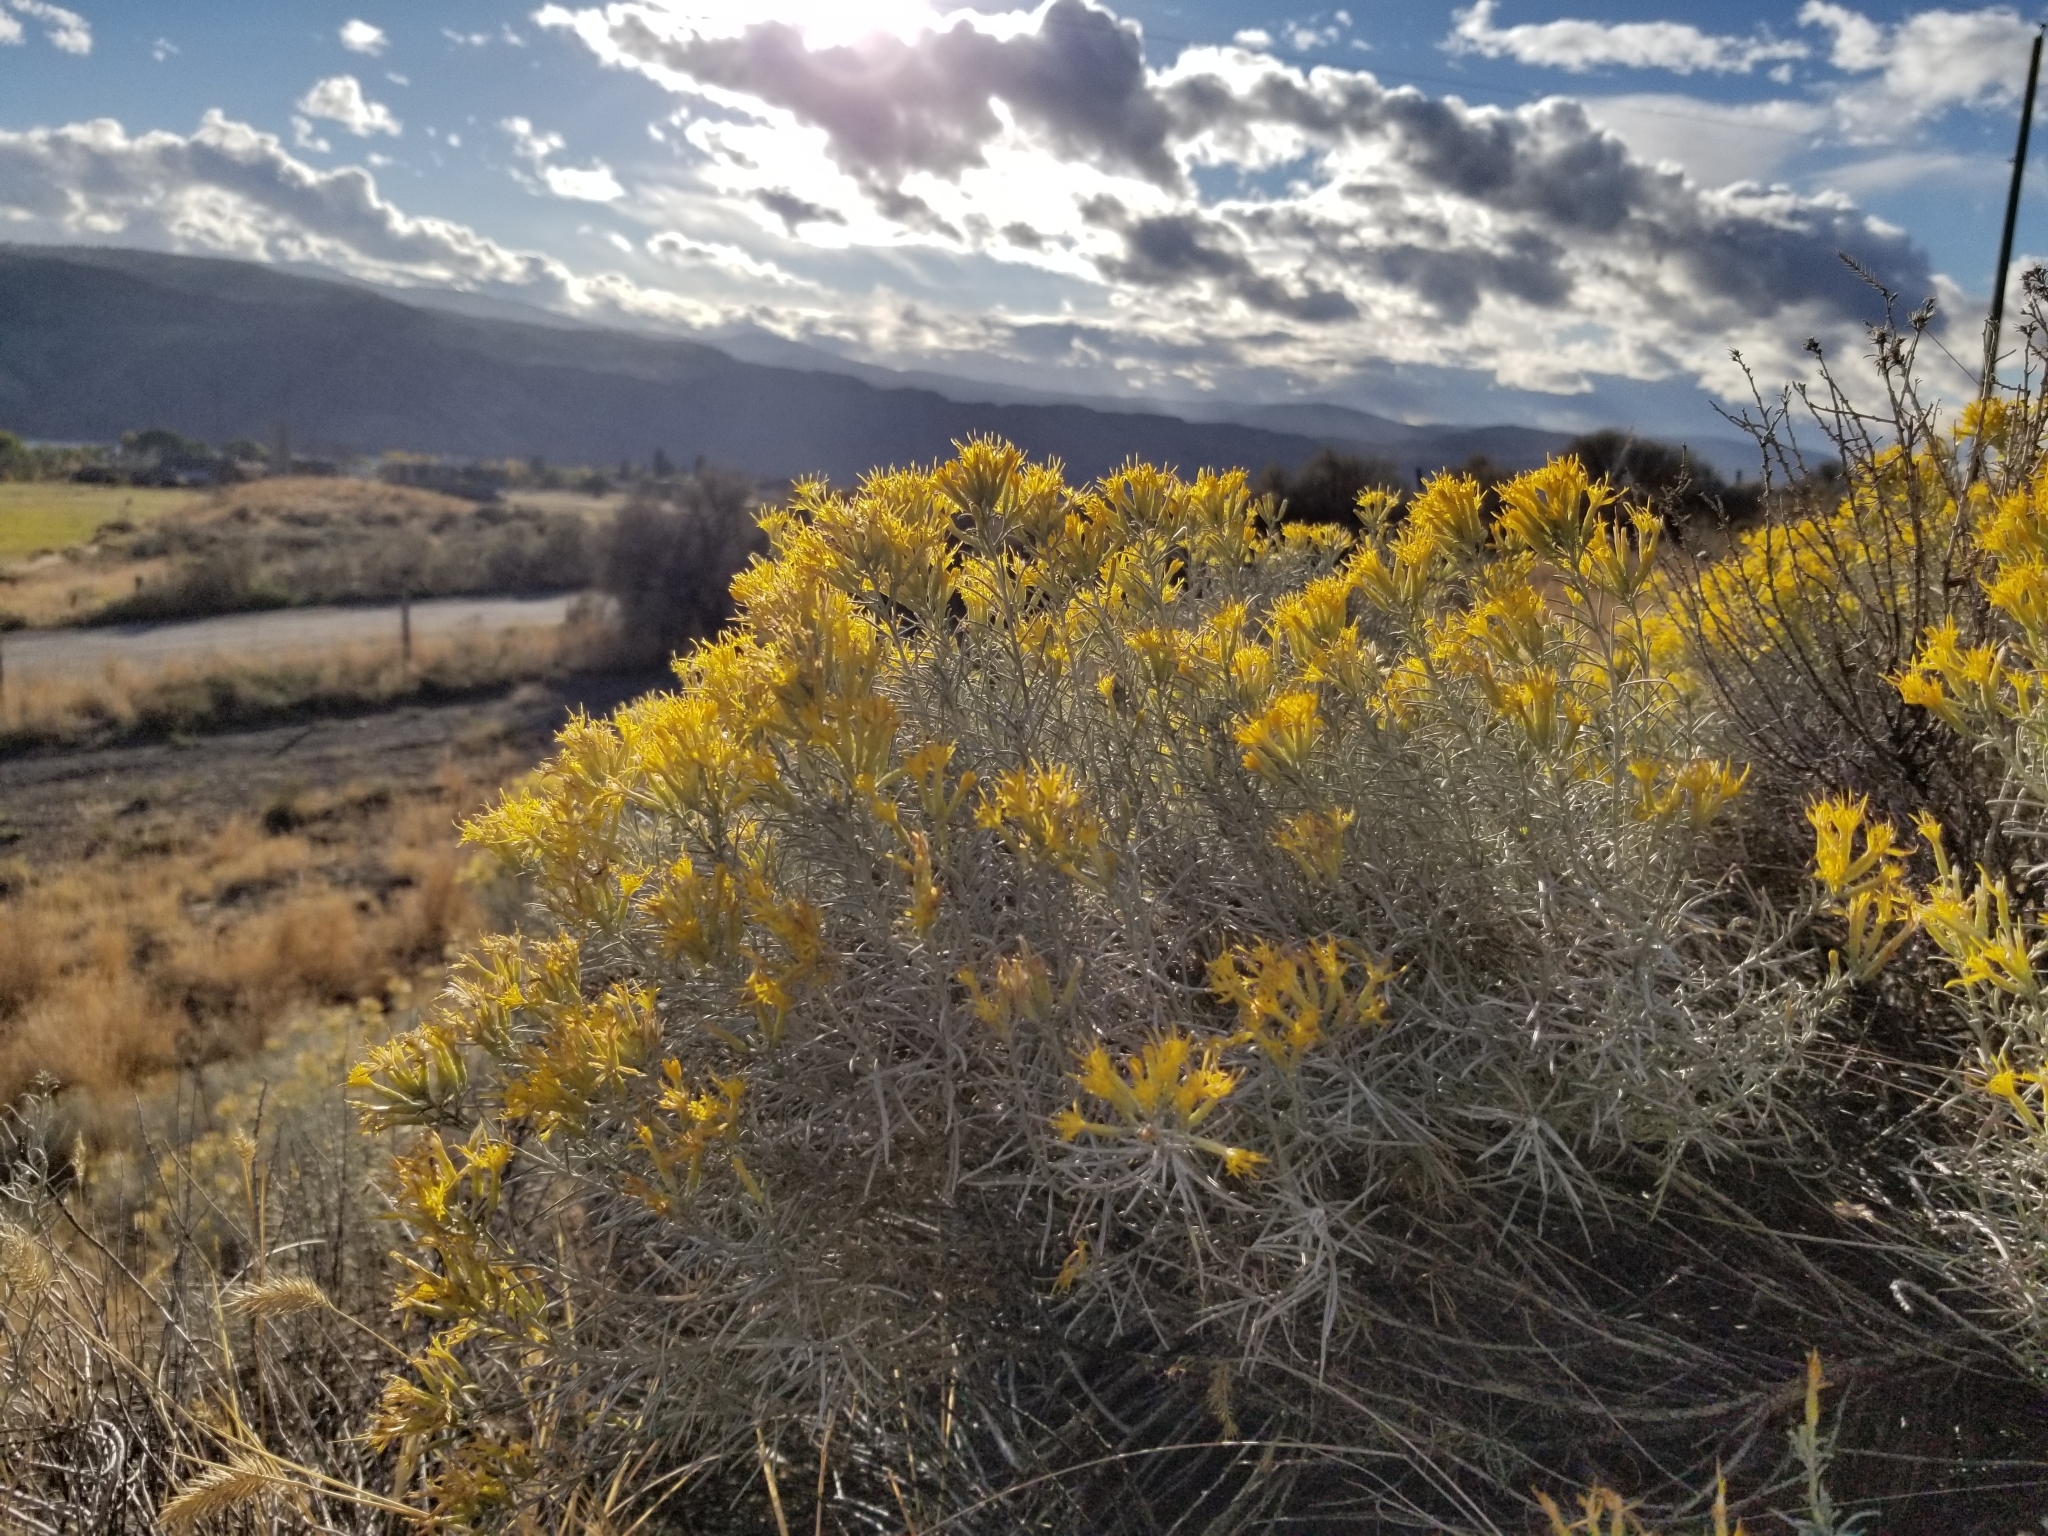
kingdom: Plantae
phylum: Tracheophyta
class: Magnoliopsida
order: Asterales
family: Asteraceae
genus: Ericameria
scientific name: Ericameria nauseosa
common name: Rubber rabbitbrush
